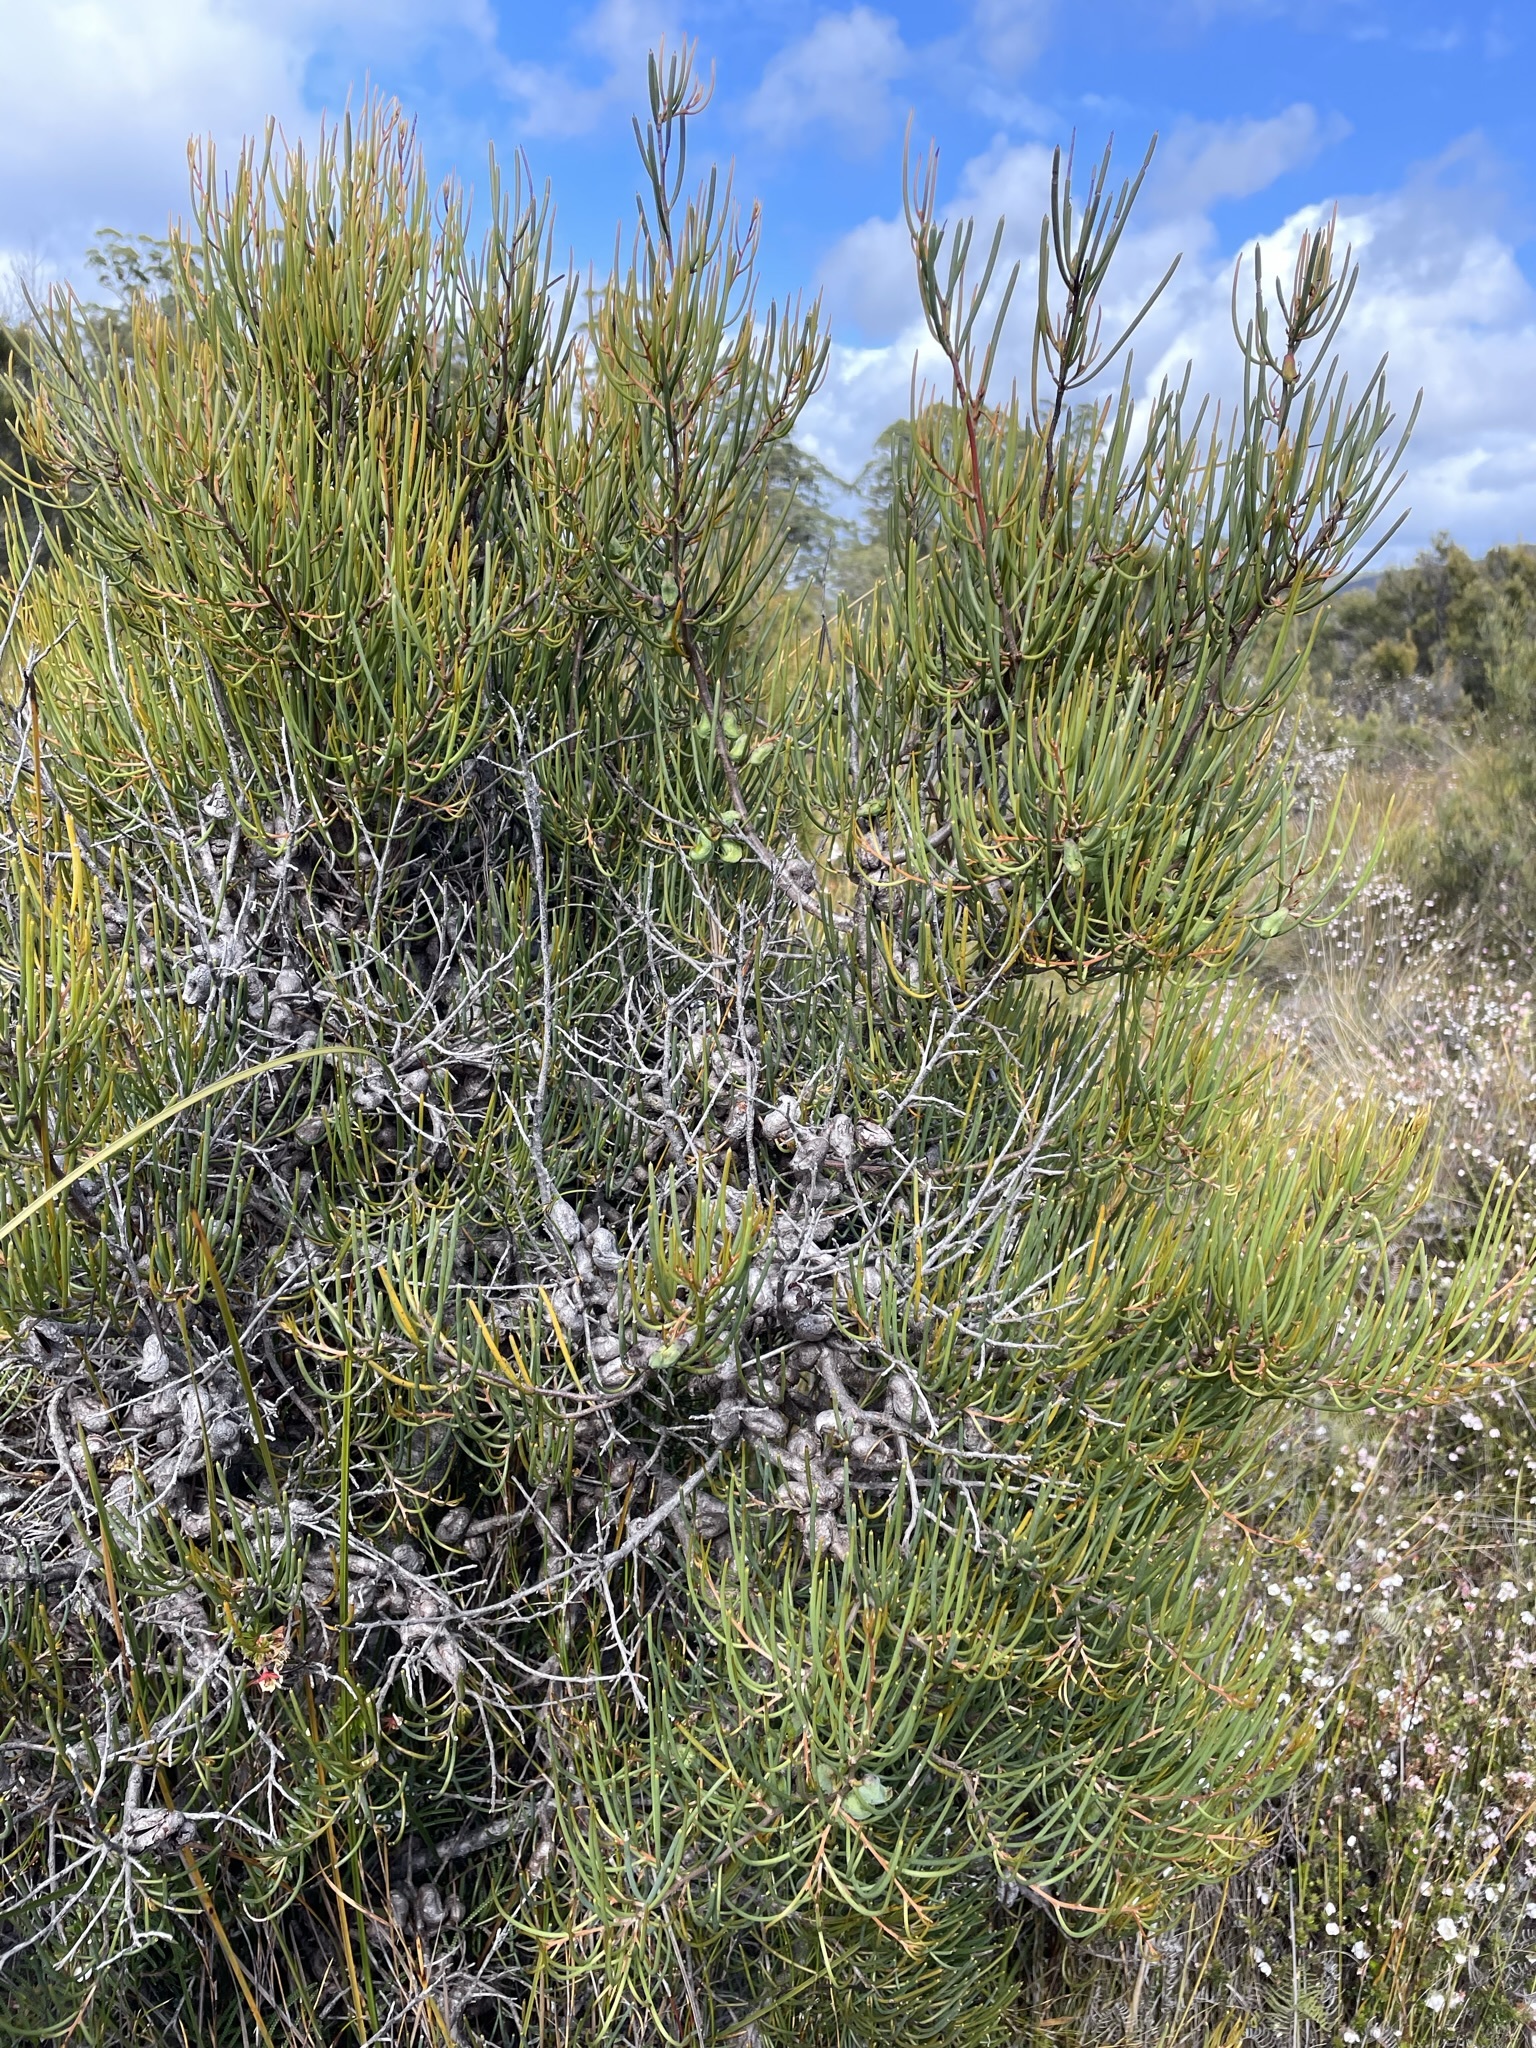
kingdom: Plantae
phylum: Tracheophyta
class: Magnoliopsida
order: Proteales
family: Proteaceae
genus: Hakea
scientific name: Hakea epiglottis
